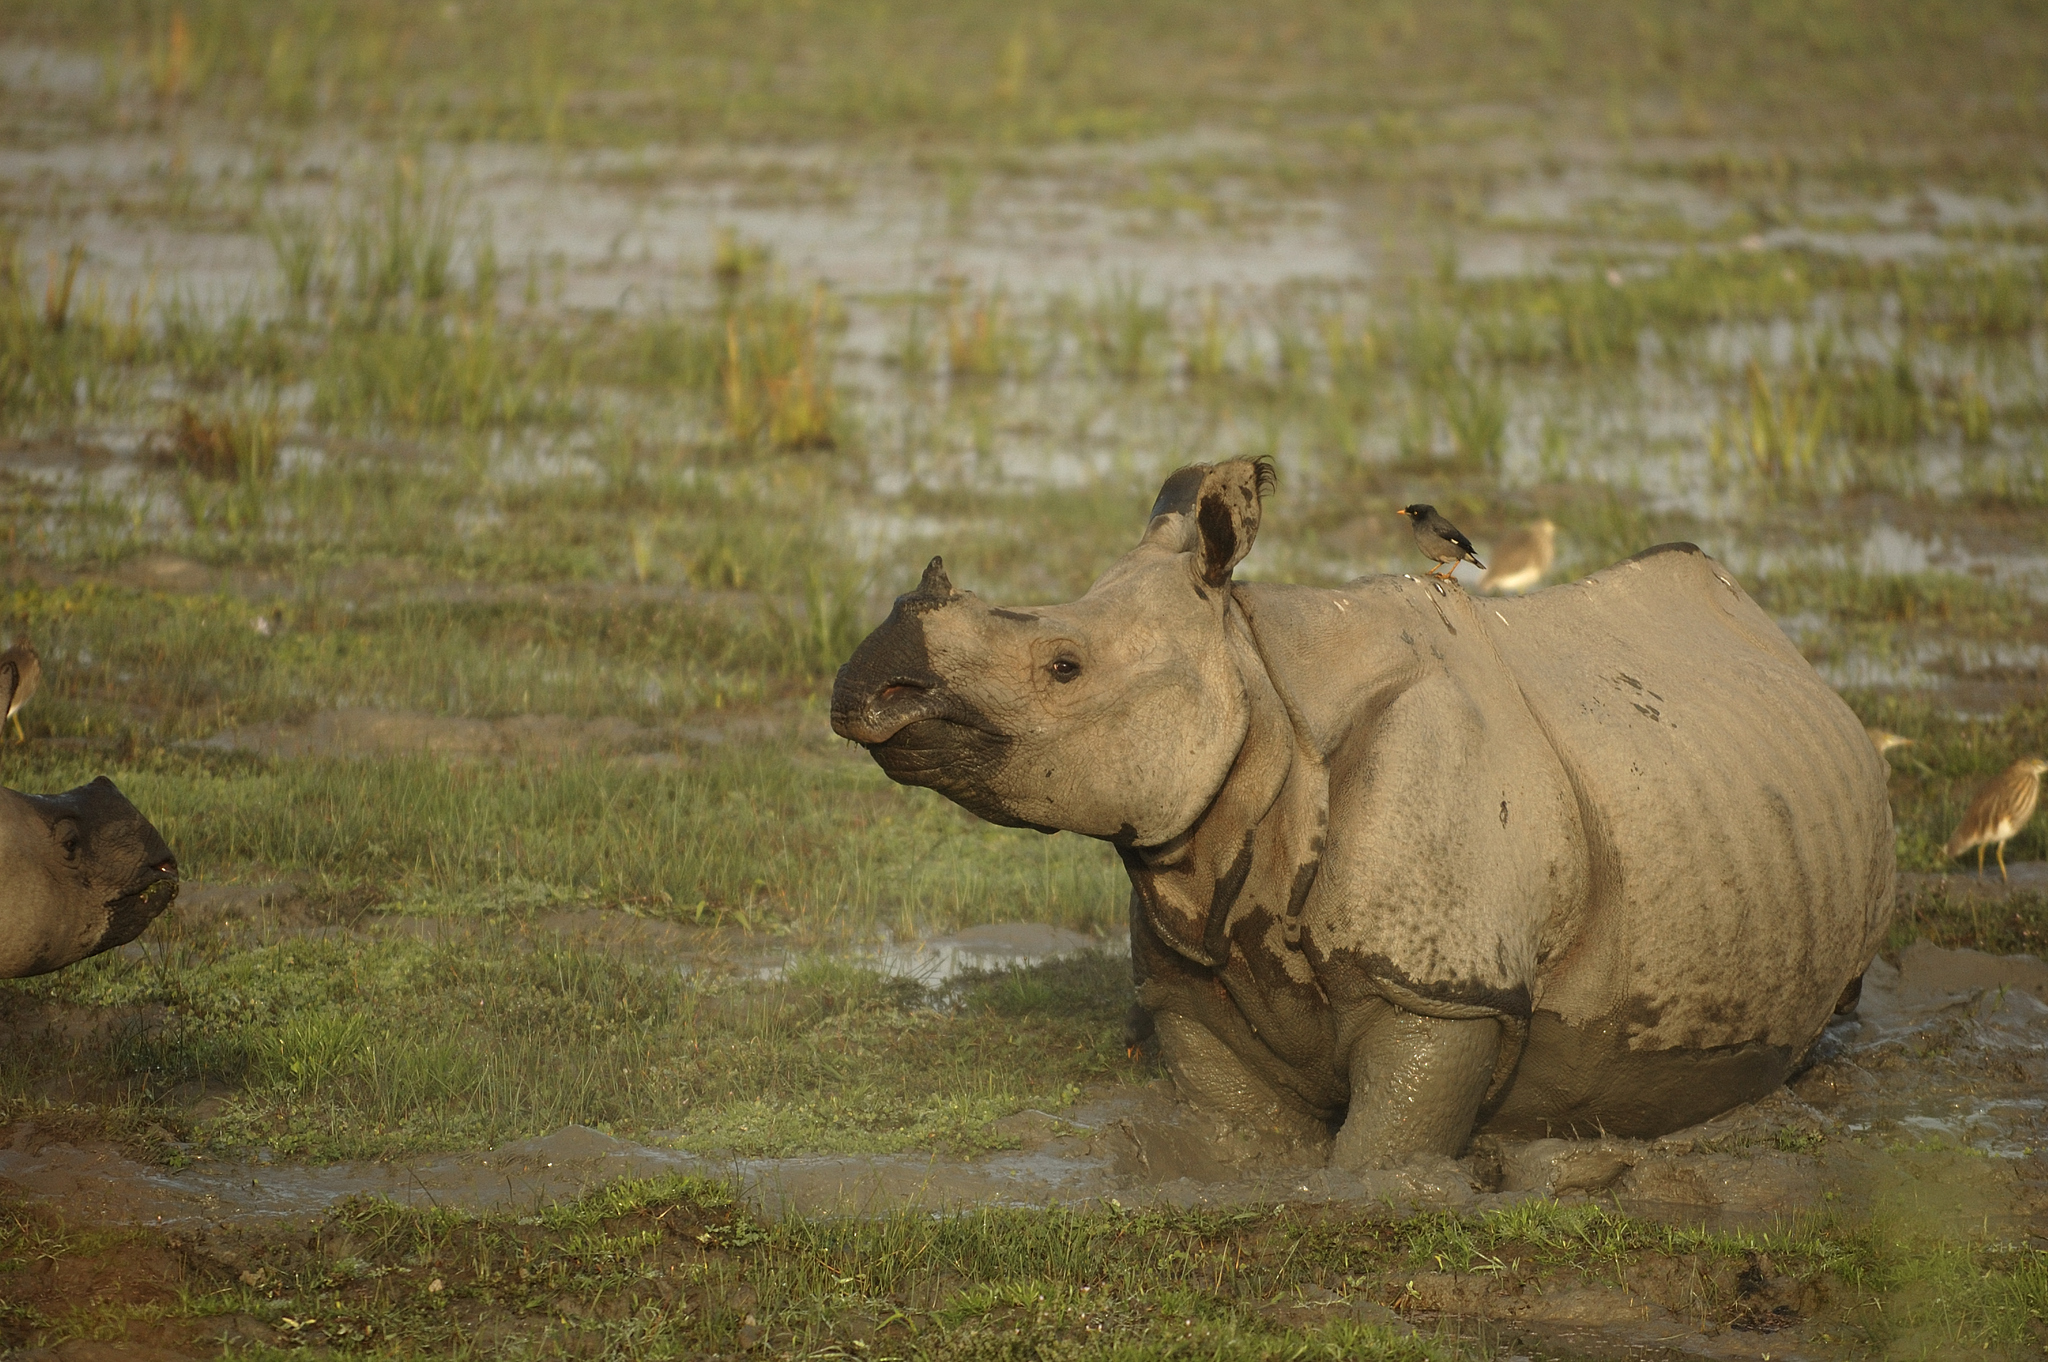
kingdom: Animalia
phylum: Chordata
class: Mammalia
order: Perissodactyla
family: Rhinocerotidae
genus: Rhinoceros
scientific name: Rhinoceros unicornis
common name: Indian rhinoceros
